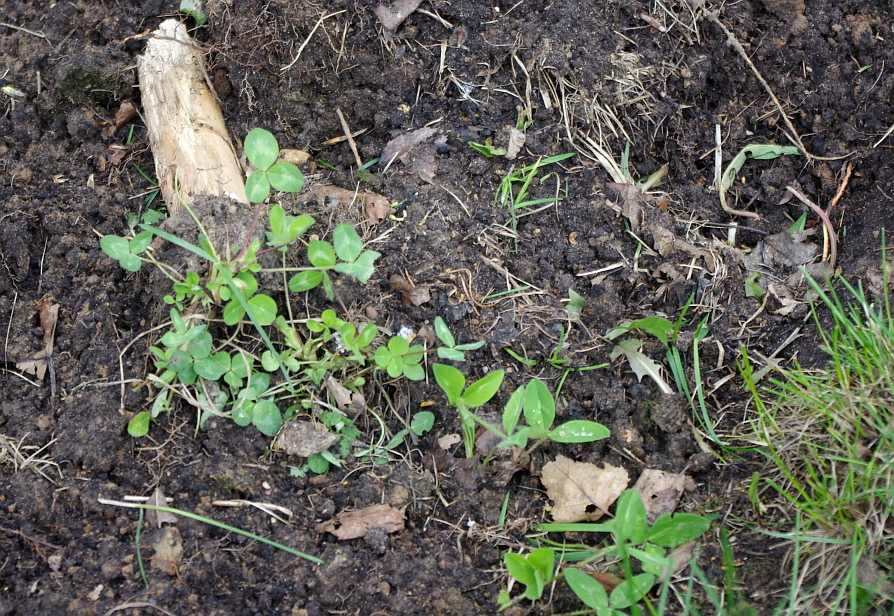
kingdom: Plantae
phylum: Tracheophyta
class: Magnoliopsida
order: Fabales
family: Fabaceae
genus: Trifolium
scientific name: Trifolium pratense
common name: Red clover
